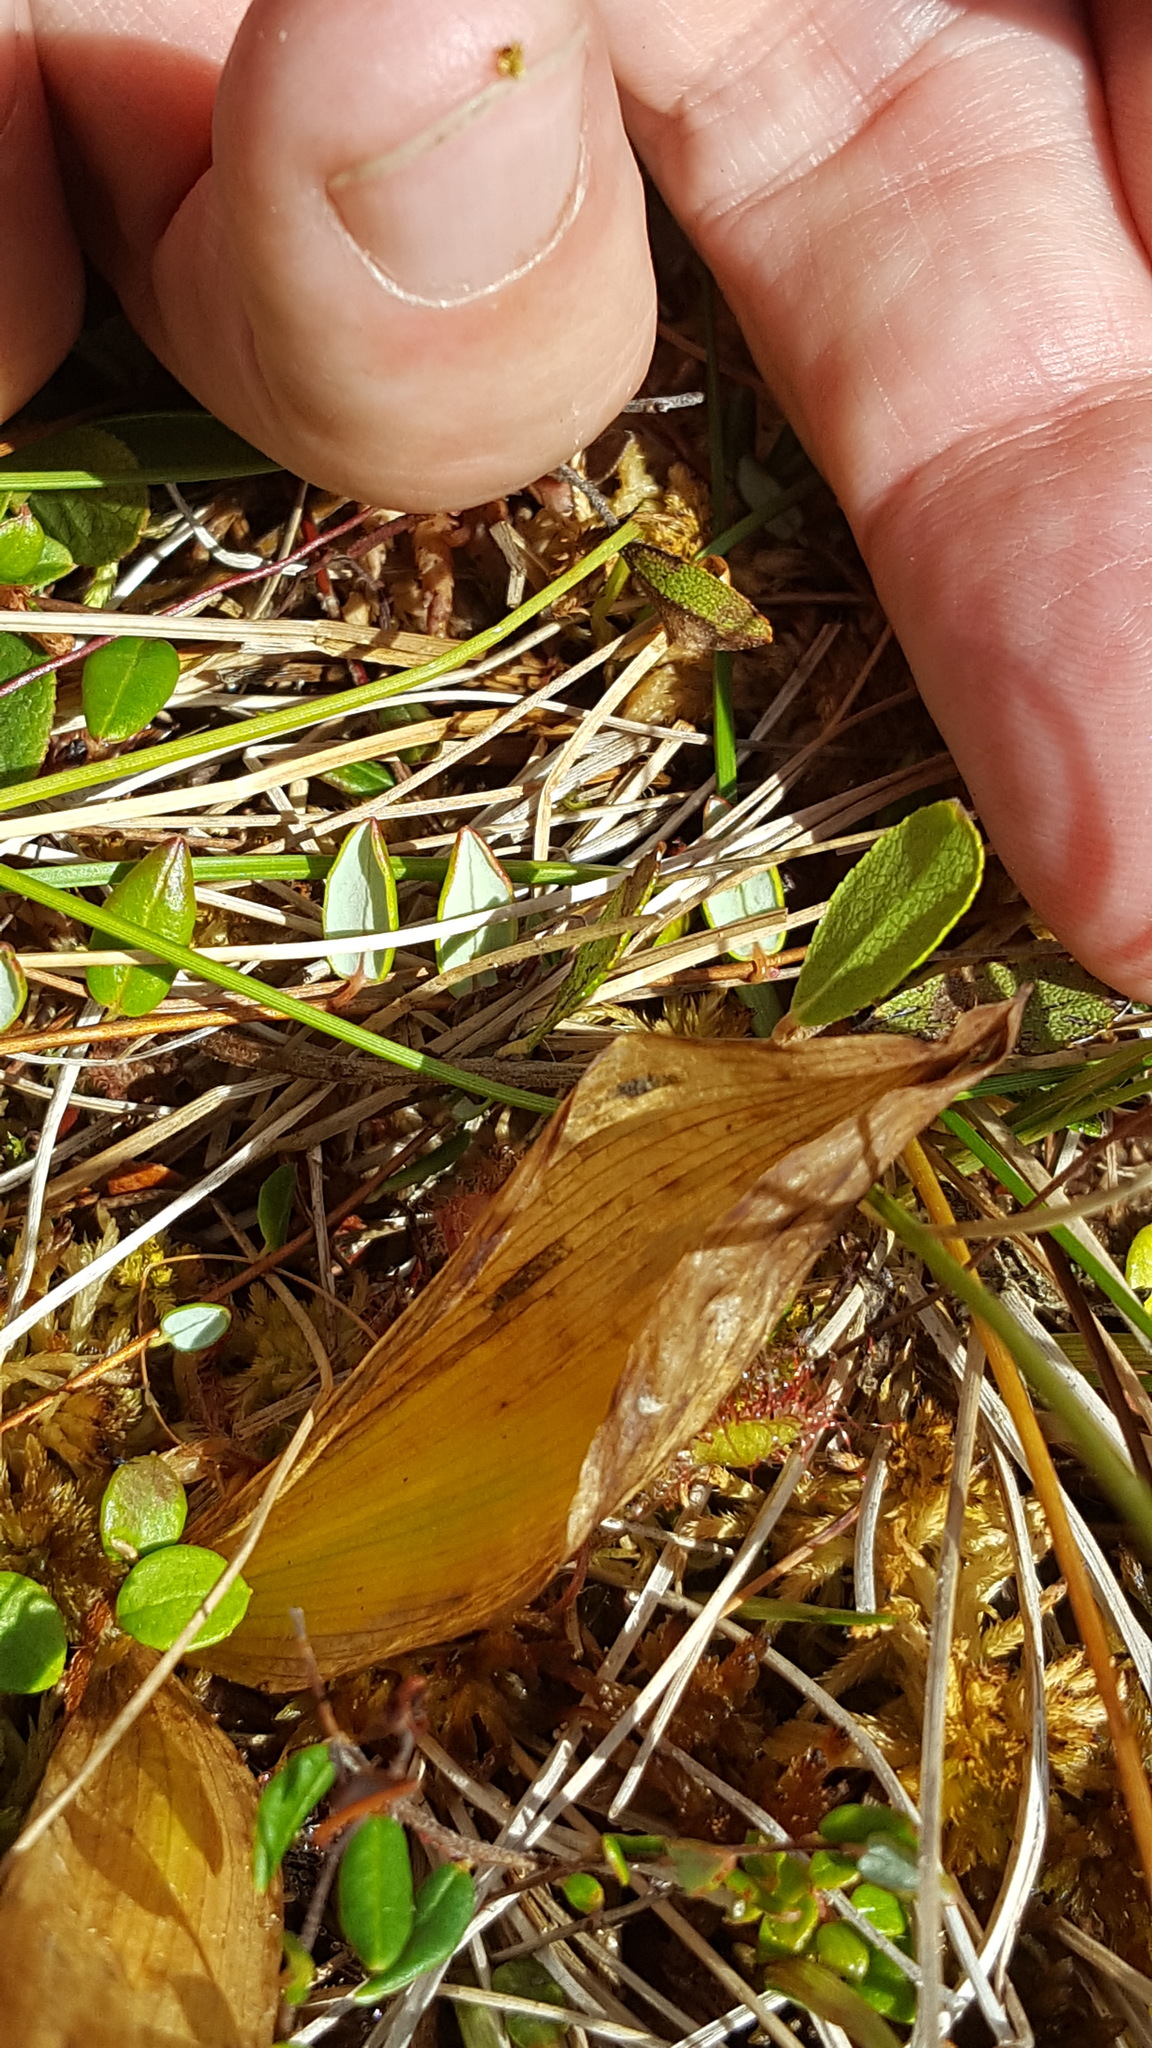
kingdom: Animalia
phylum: Arthropoda
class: Insecta
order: Coleoptera
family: Curculionidae
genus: Liparis
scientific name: Liparis loeselii
